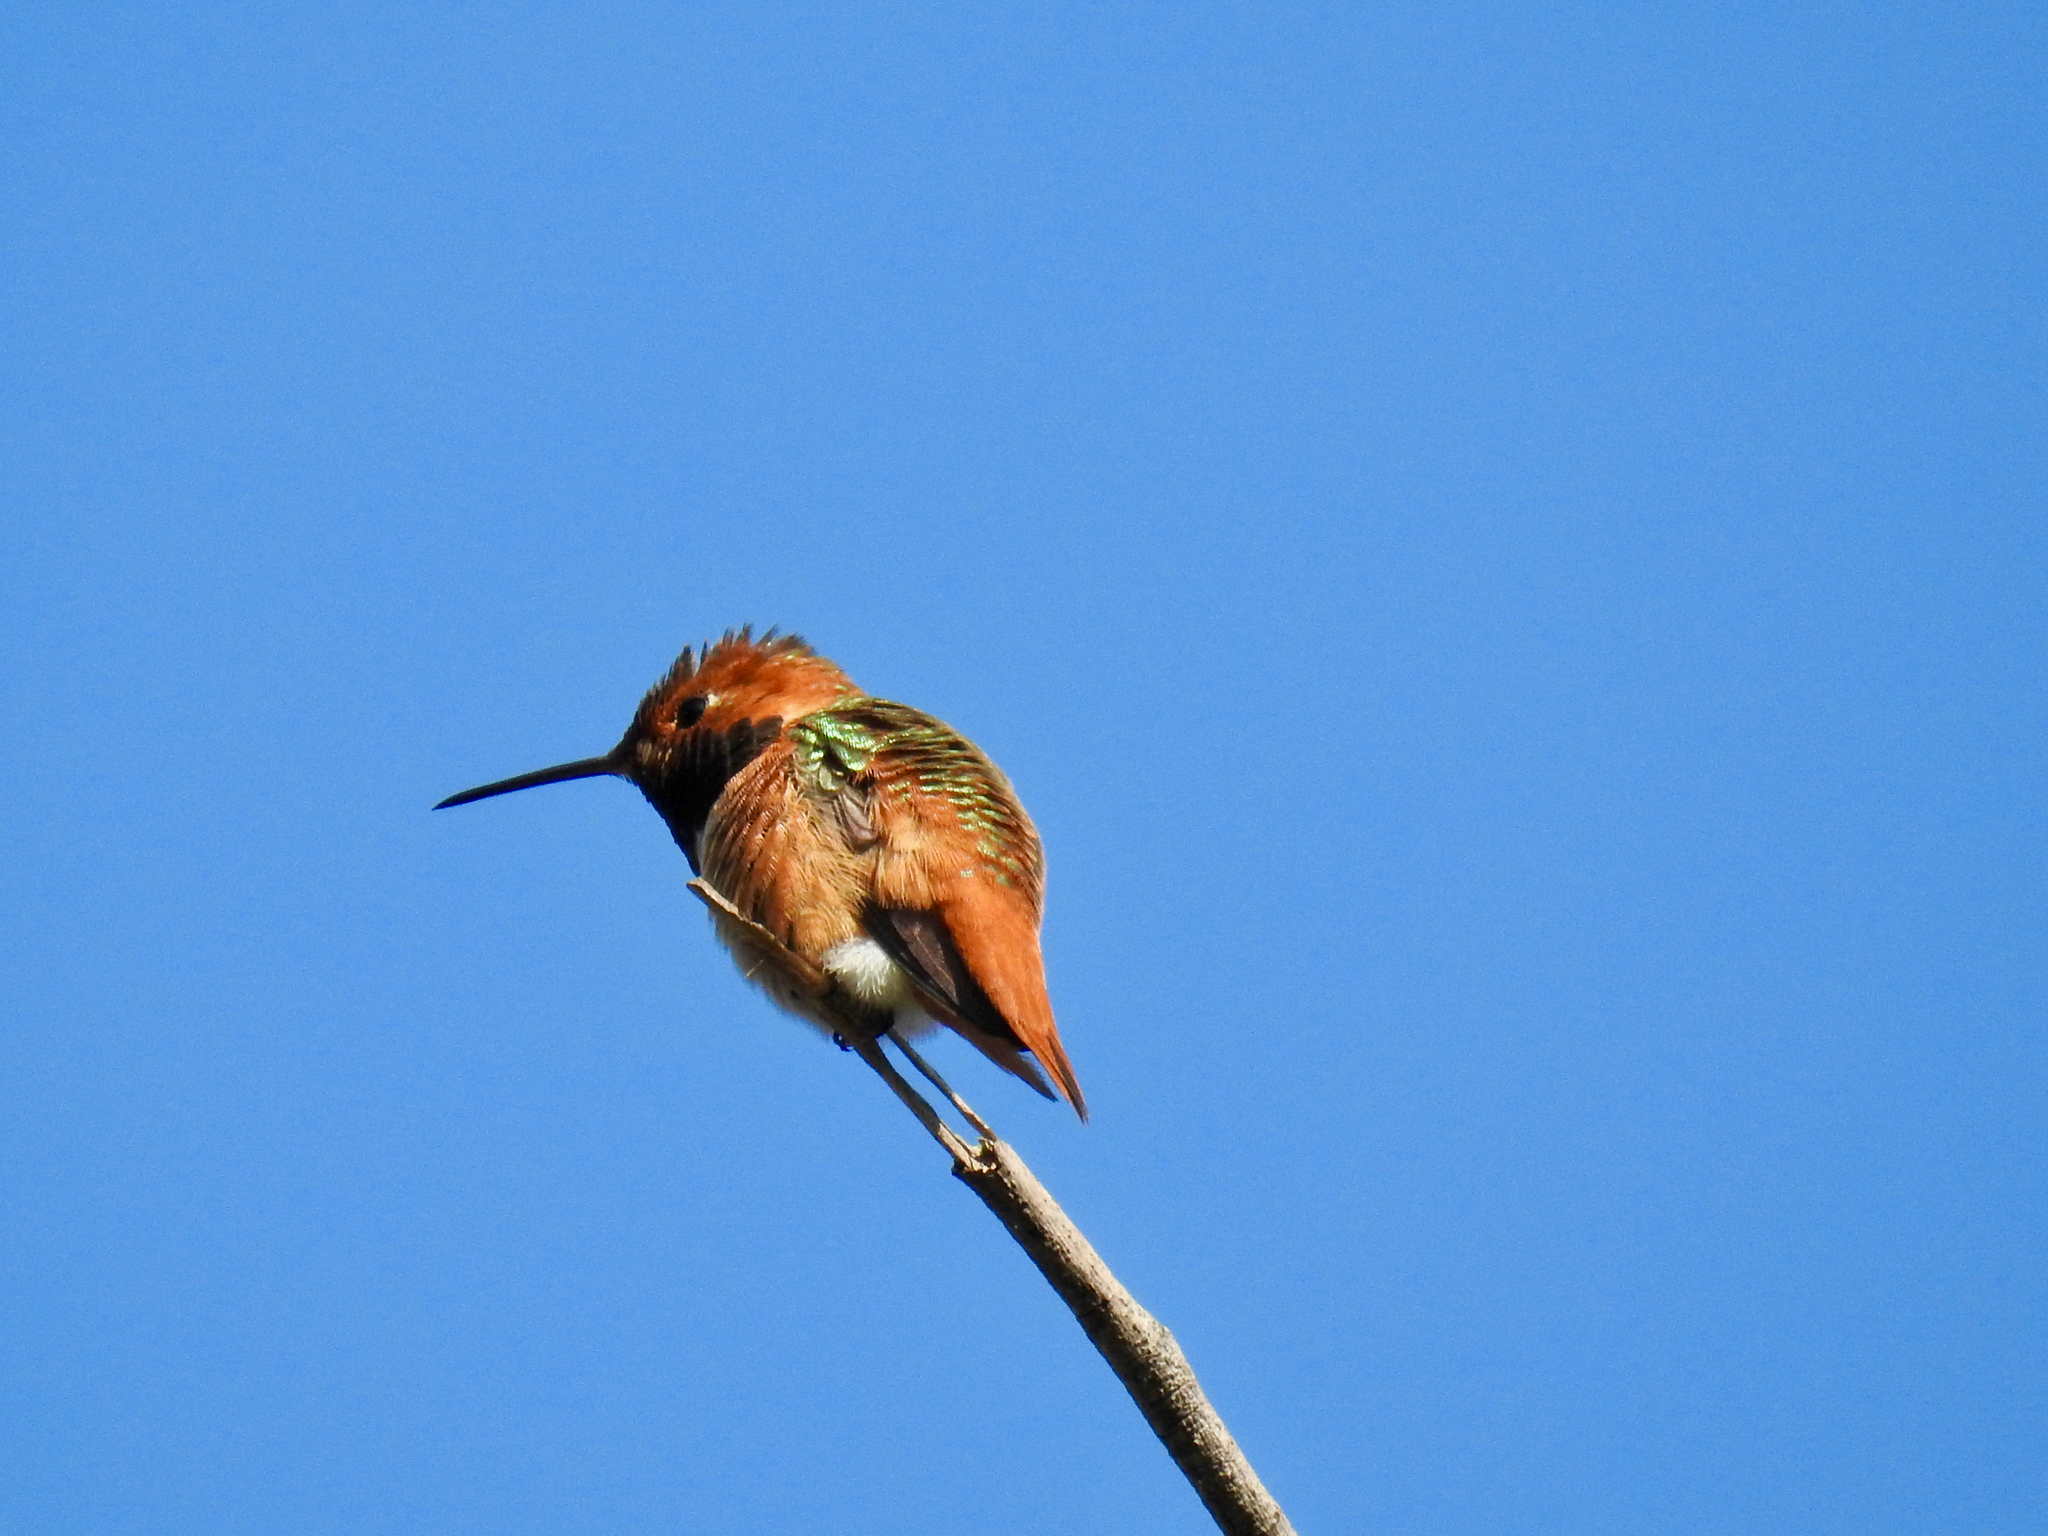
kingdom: Animalia
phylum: Chordata
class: Aves
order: Apodiformes
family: Trochilidae
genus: Selasphorus
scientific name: Selasphorus sasin
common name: Allen's hummingbird
